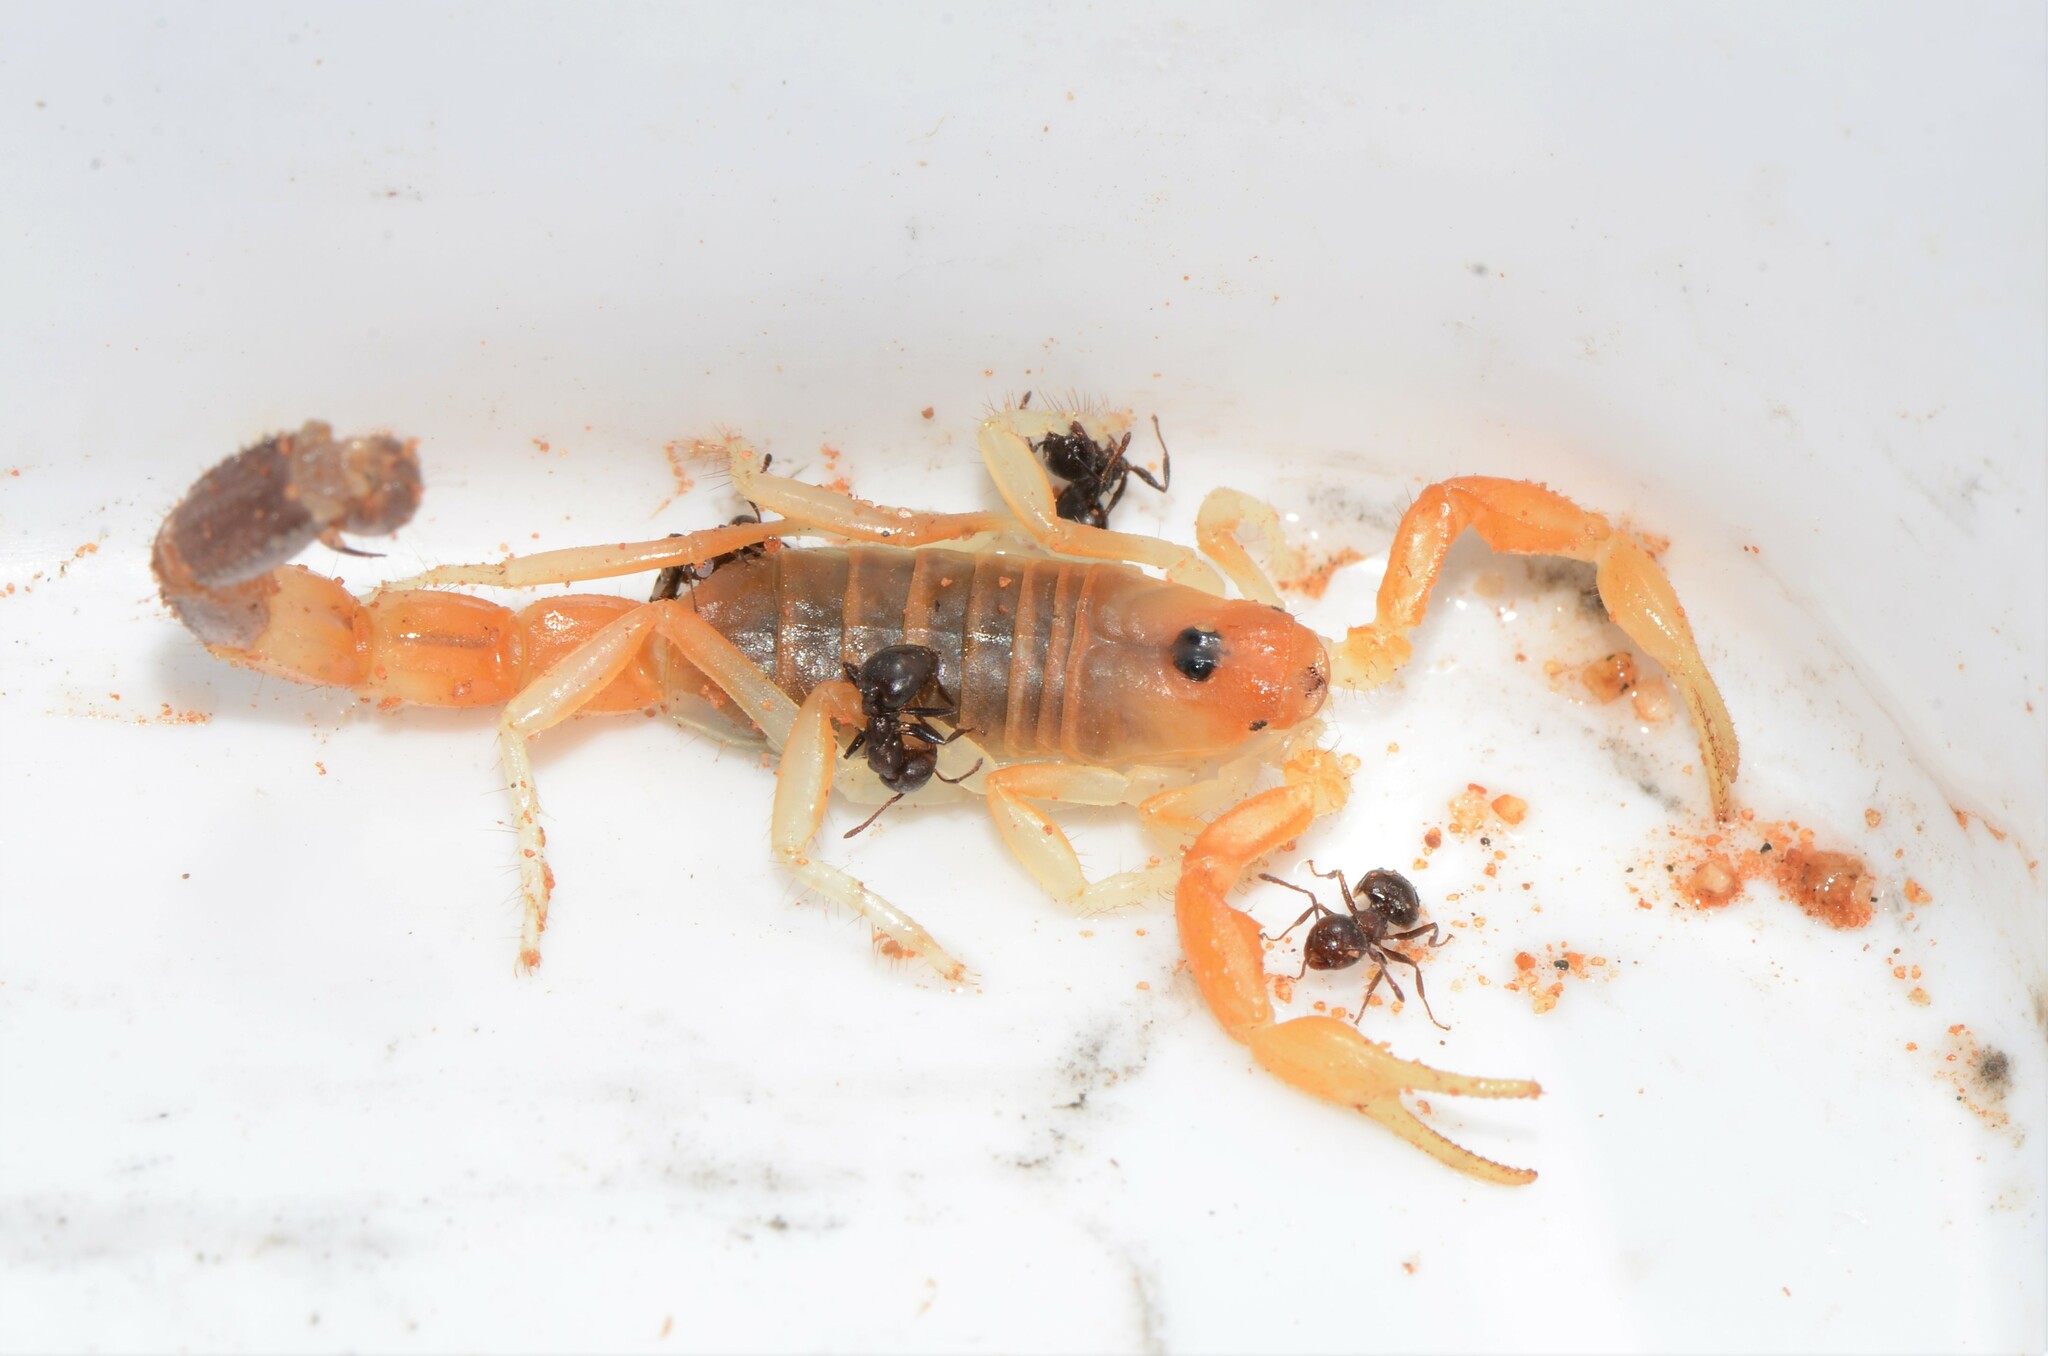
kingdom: Animalia
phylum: Arthropoda
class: Arachnida
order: Scorpiones
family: Buthidae
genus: Parabuthus
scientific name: Parabuthus laevifrons
